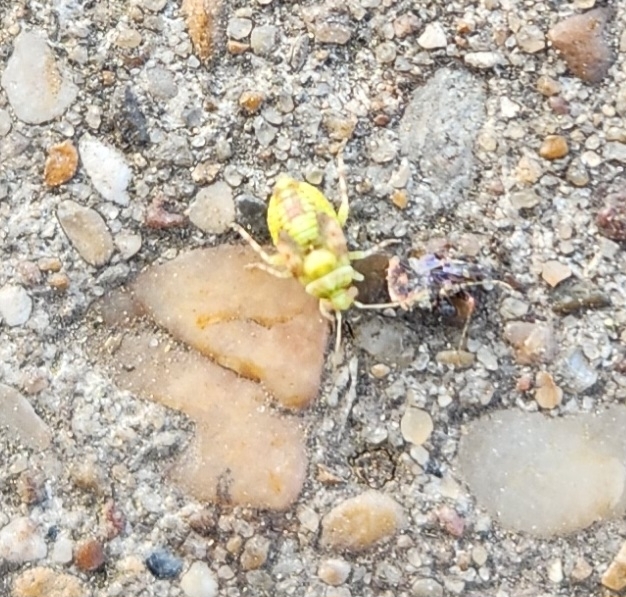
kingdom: Animalia
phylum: Arthropoda
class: Insecta
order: Hemiptera
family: Miridae
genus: Tropidosteptes
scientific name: Tropidosteptes quercicola
